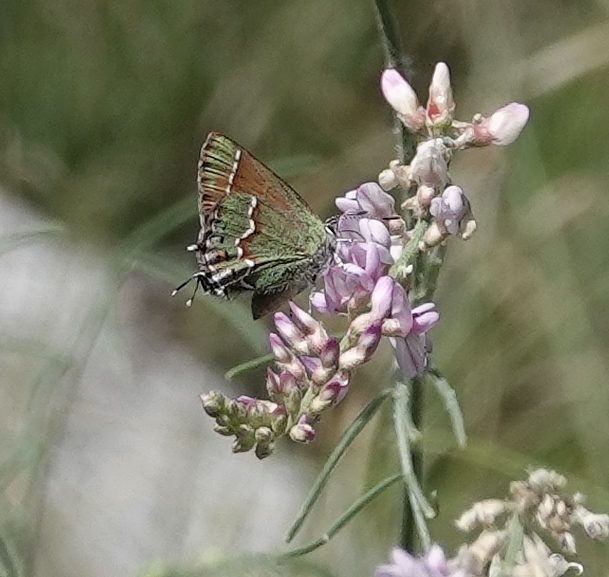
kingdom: Animalia
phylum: Arthropoda
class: Insecta
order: Lepidoptera
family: Lycaenidae
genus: Mitoura
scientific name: Mitoura gryneus
